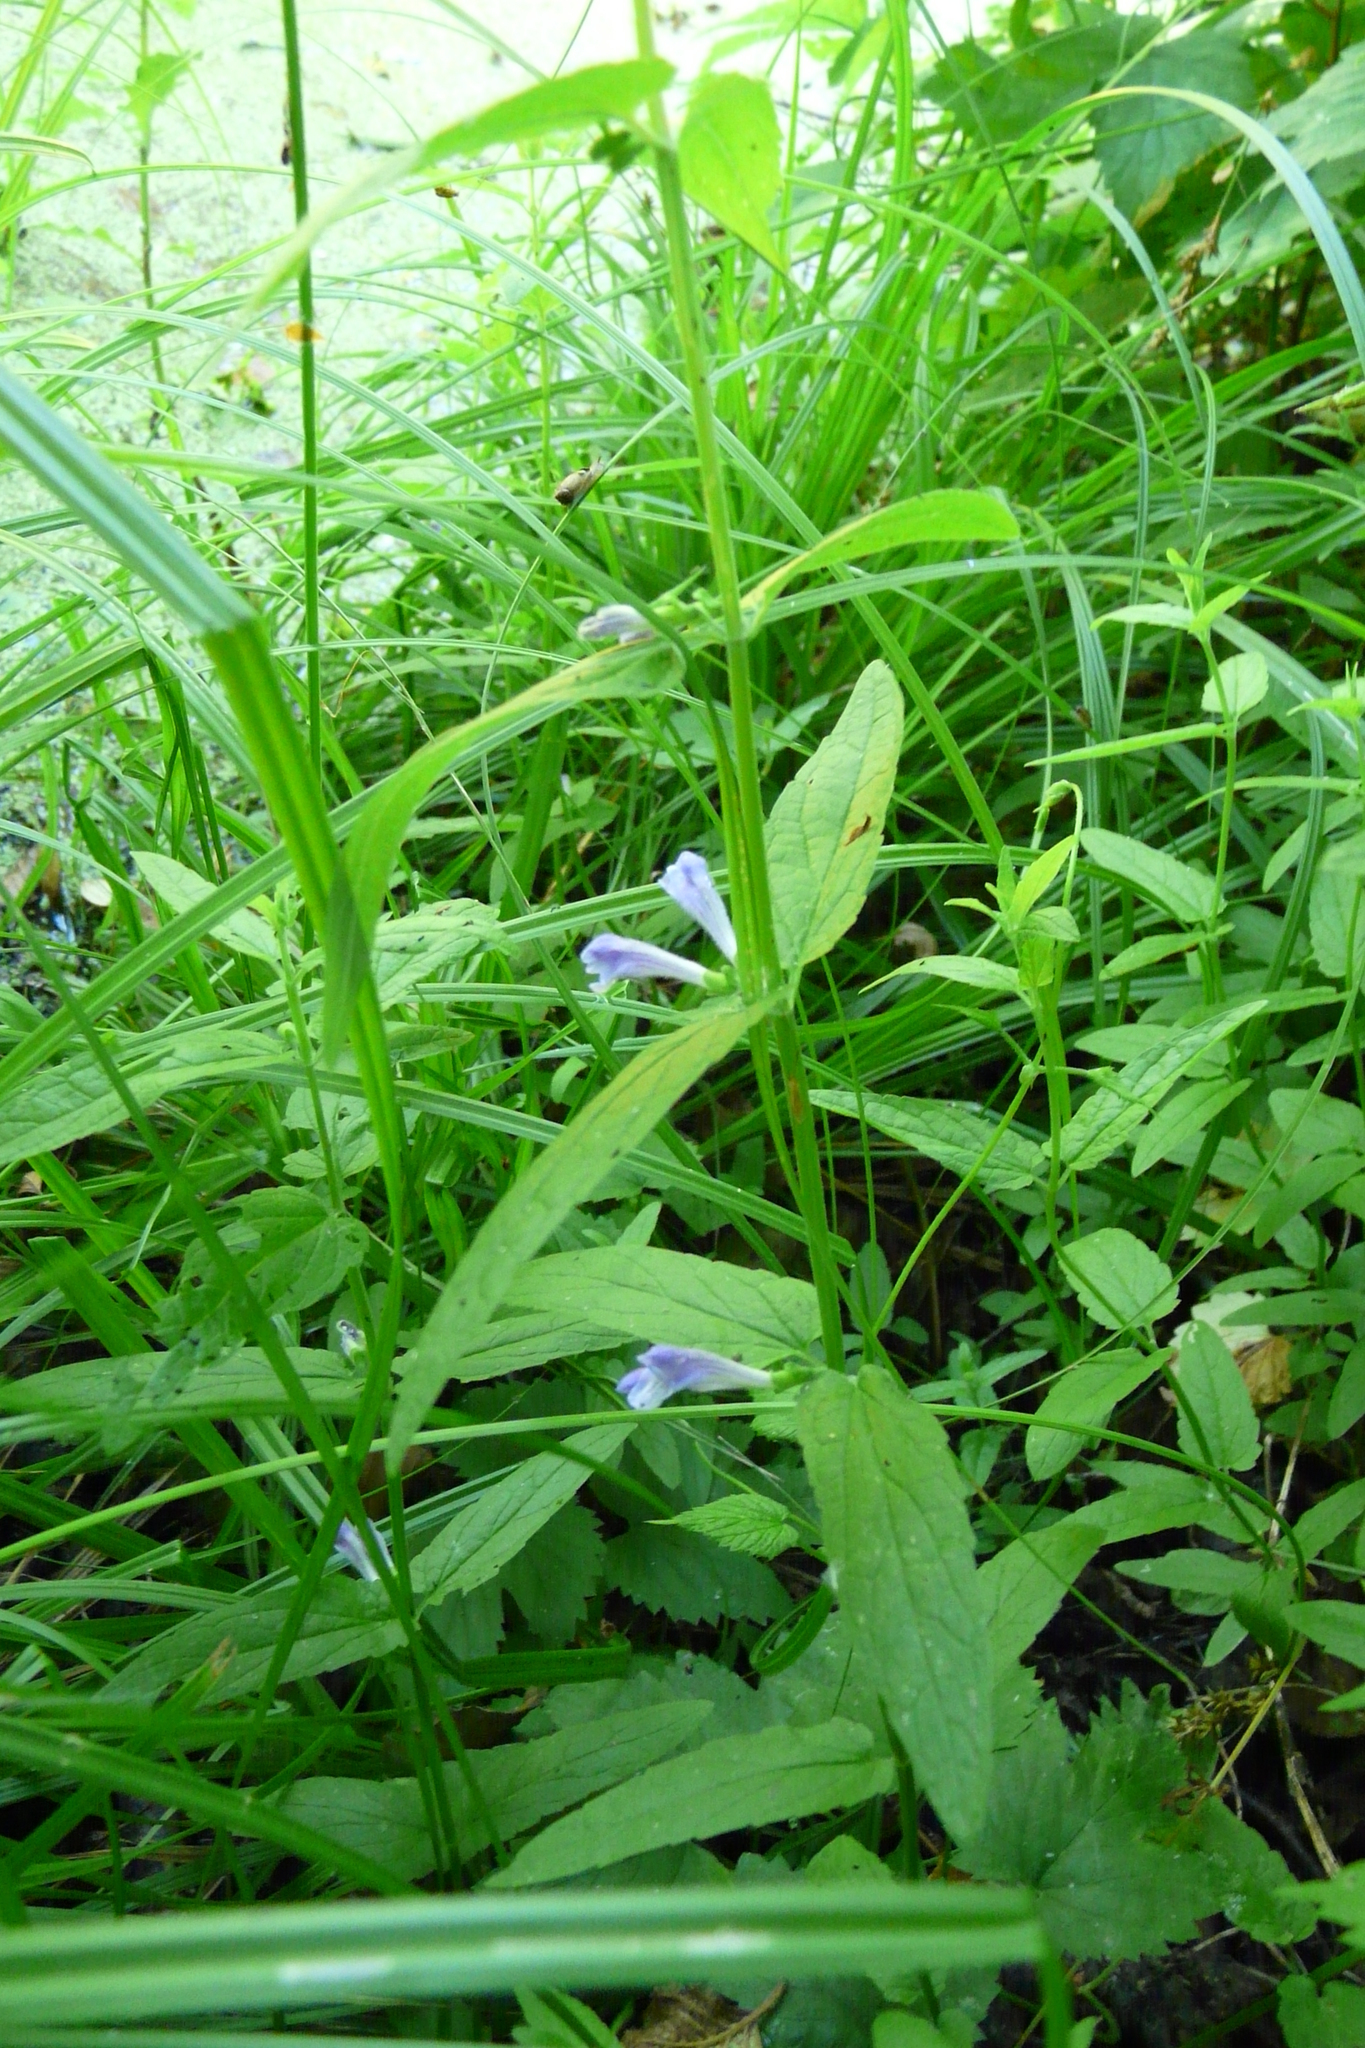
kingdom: Plantae
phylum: Tracheophyta
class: Magnoliopsida
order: Lamiales
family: Lamiaceae
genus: Scutellaria
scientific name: Scutellaria galericulata
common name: Skullcap
